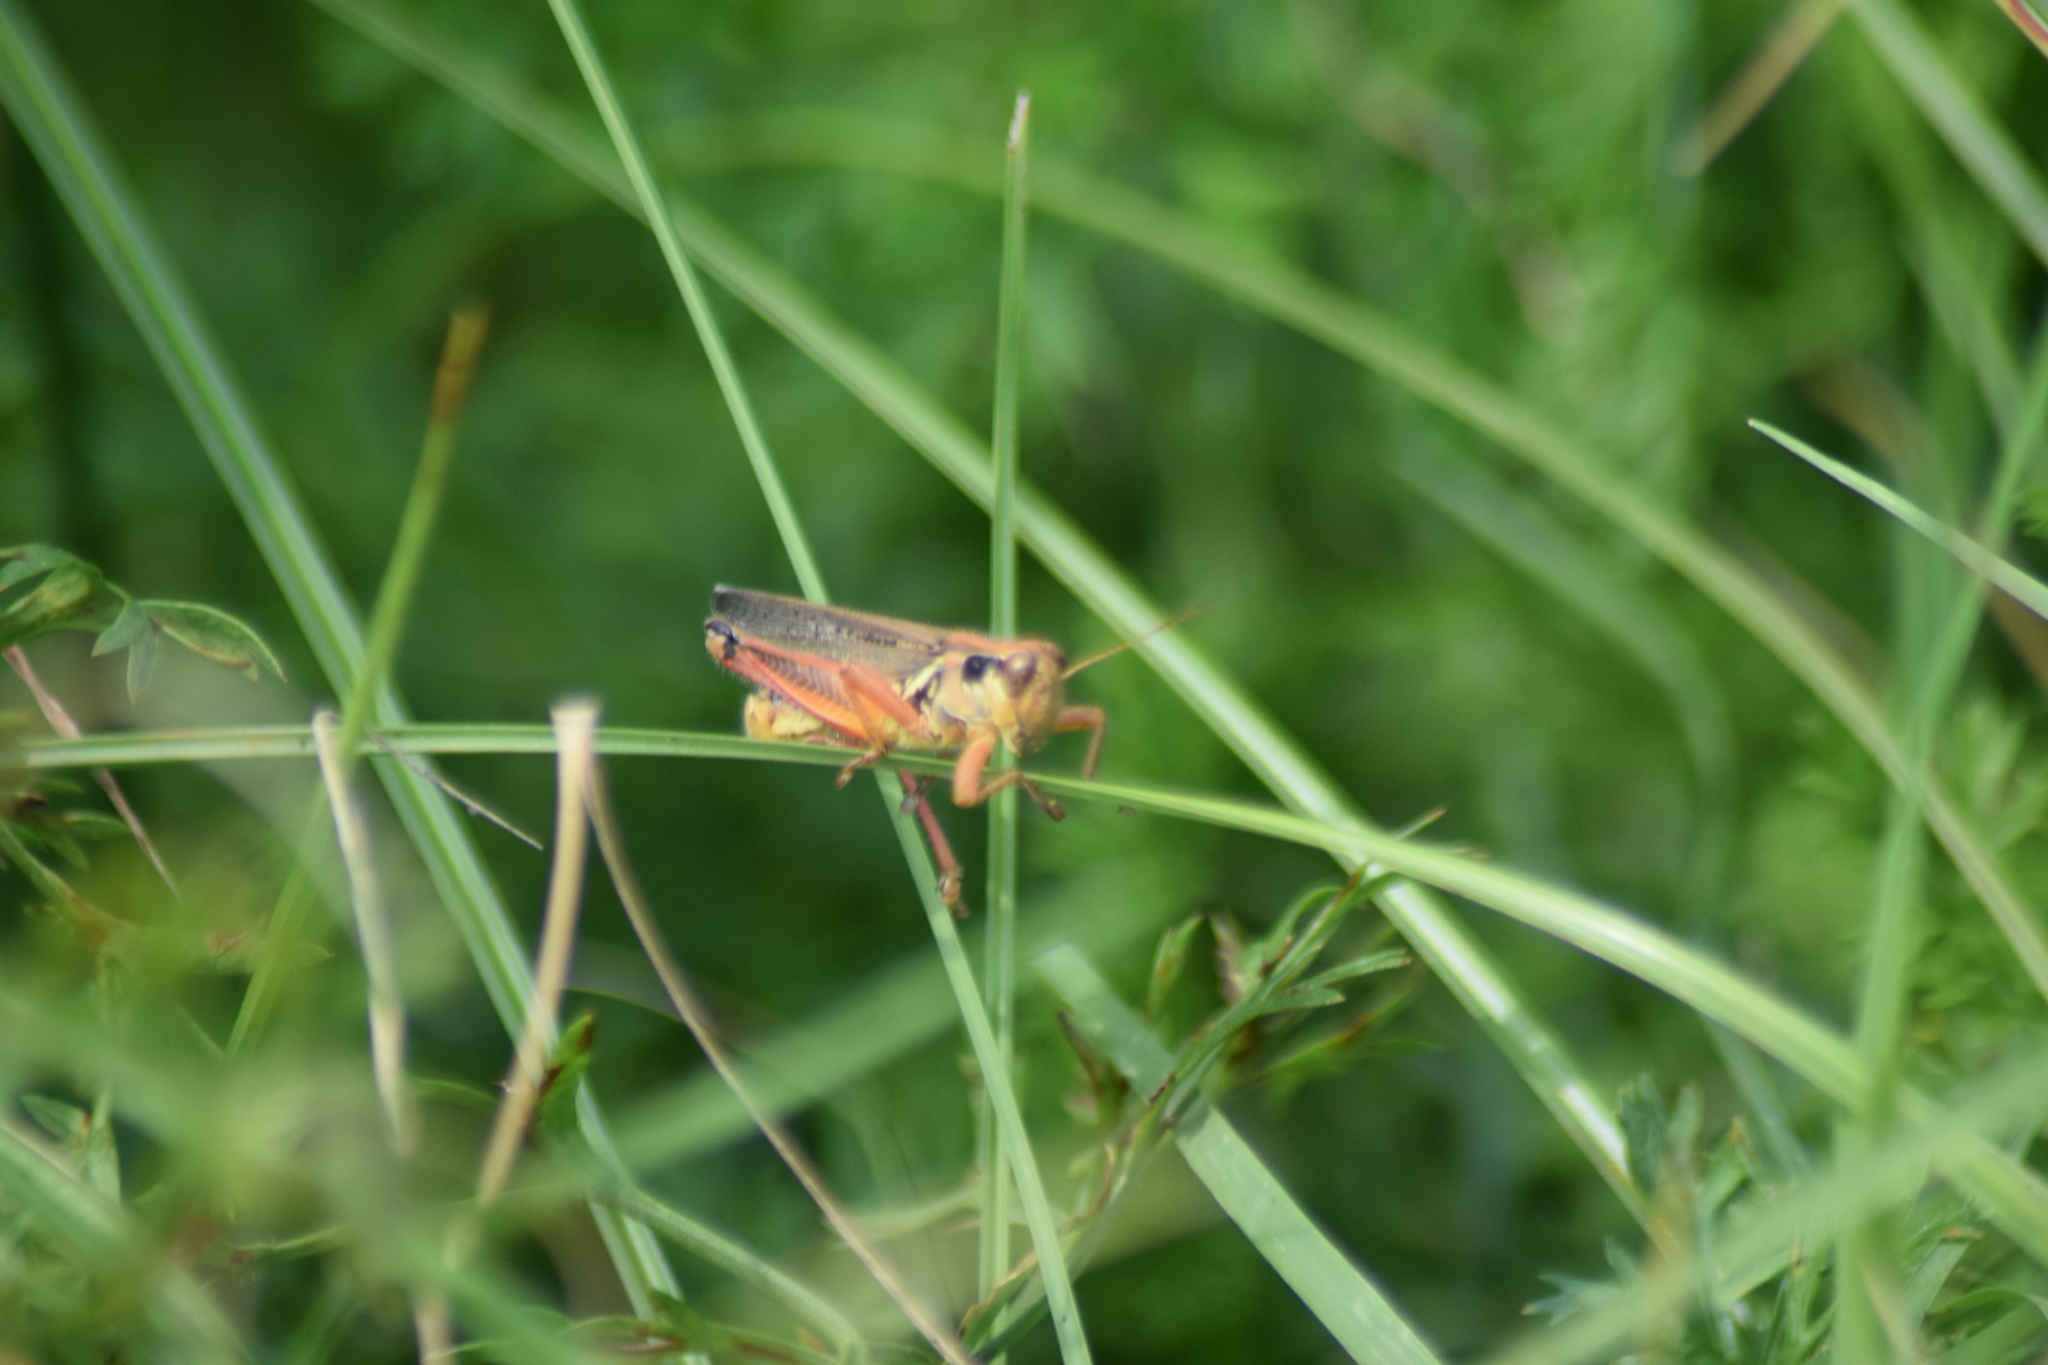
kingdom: Animalia
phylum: Arthropoda
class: Insecta
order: Orthoptera
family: Acrididae
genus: Melanoplus
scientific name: Melanoplus femurrubrum
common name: Red-legged grasshopper
